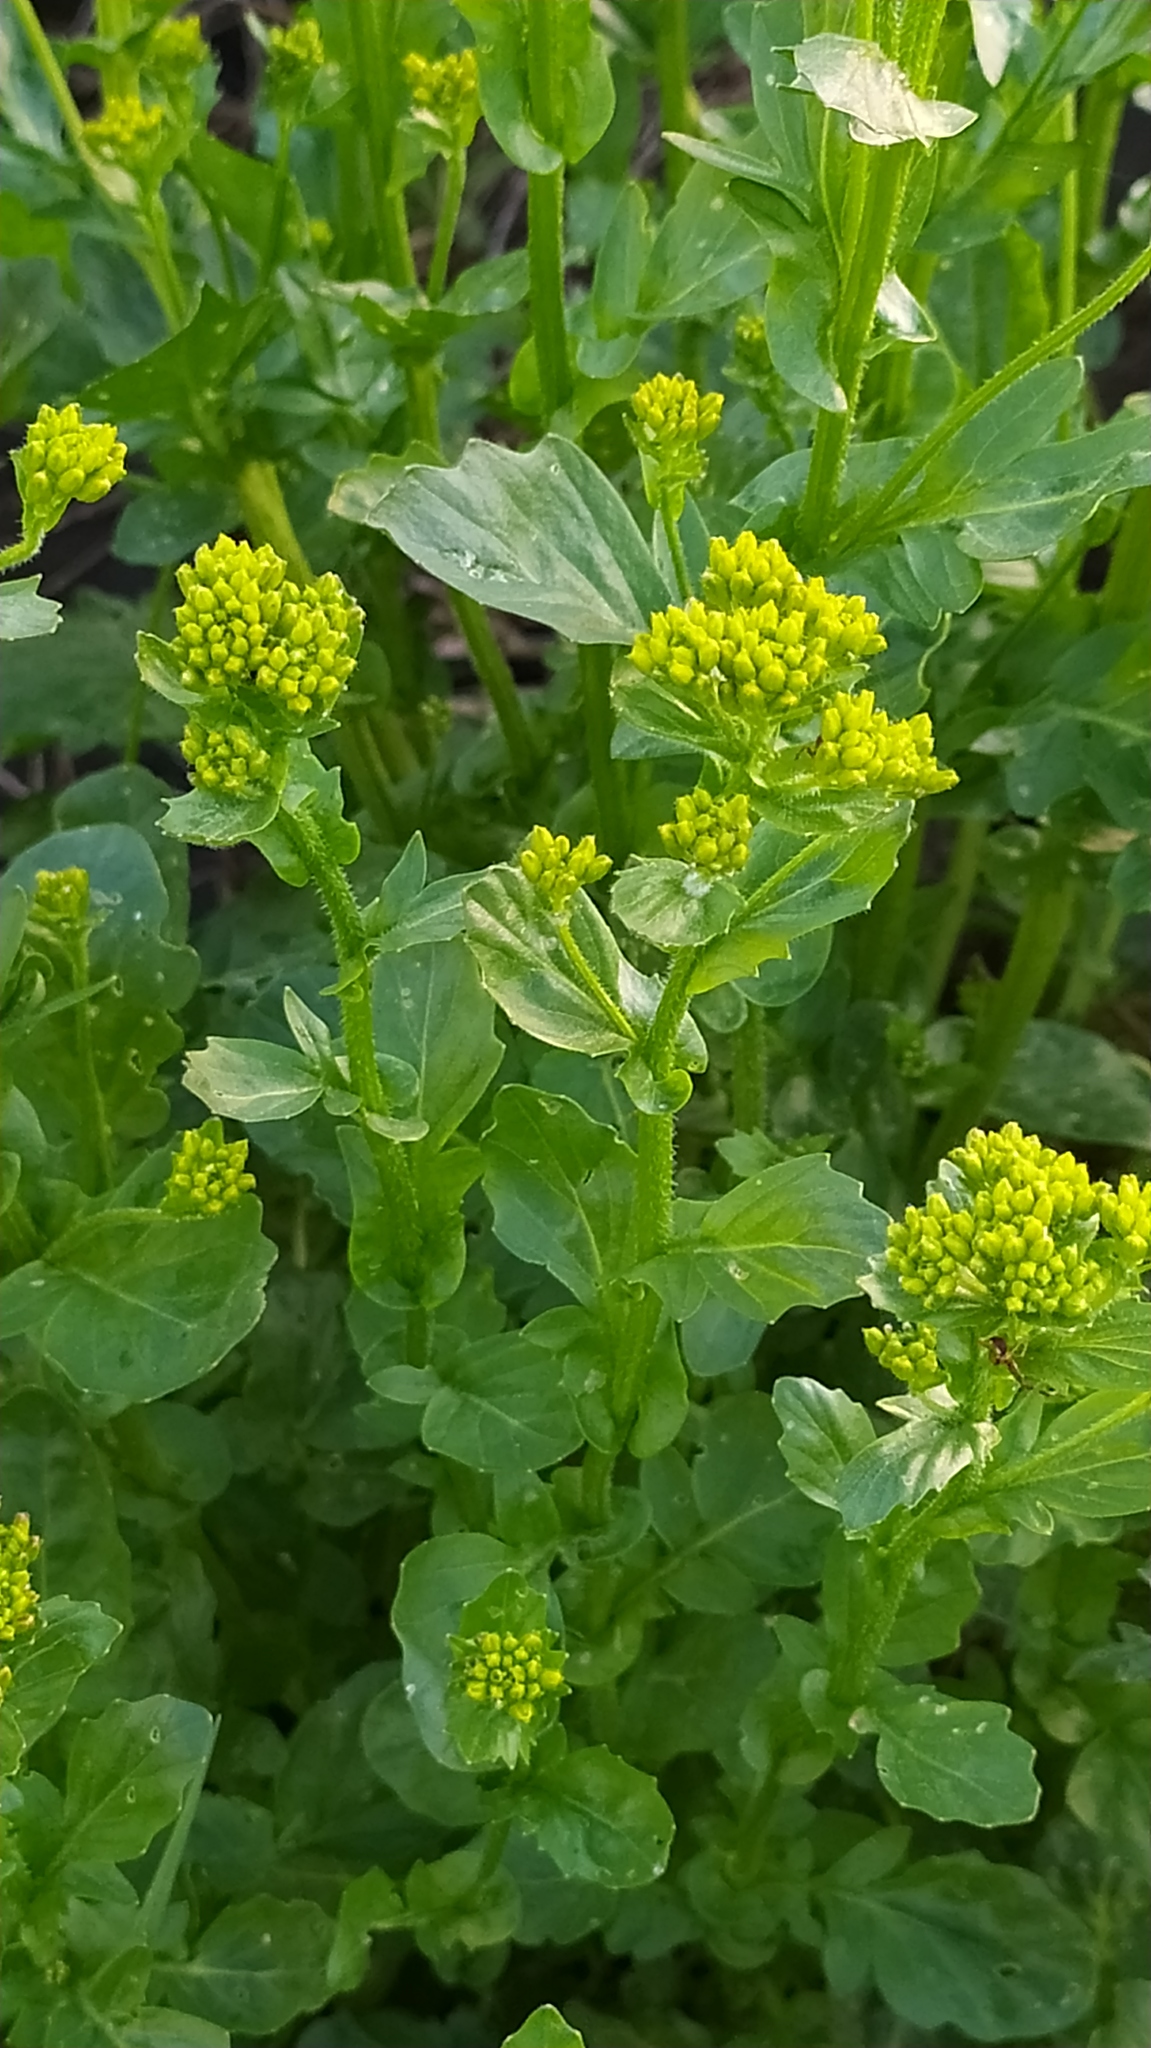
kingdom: Plantae
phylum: Tracheophyta
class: Magnoliopsida
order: Brassicales
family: Brassicaceae
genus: Barbarea
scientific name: Barbarea vulgaris
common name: Cressy-greens
